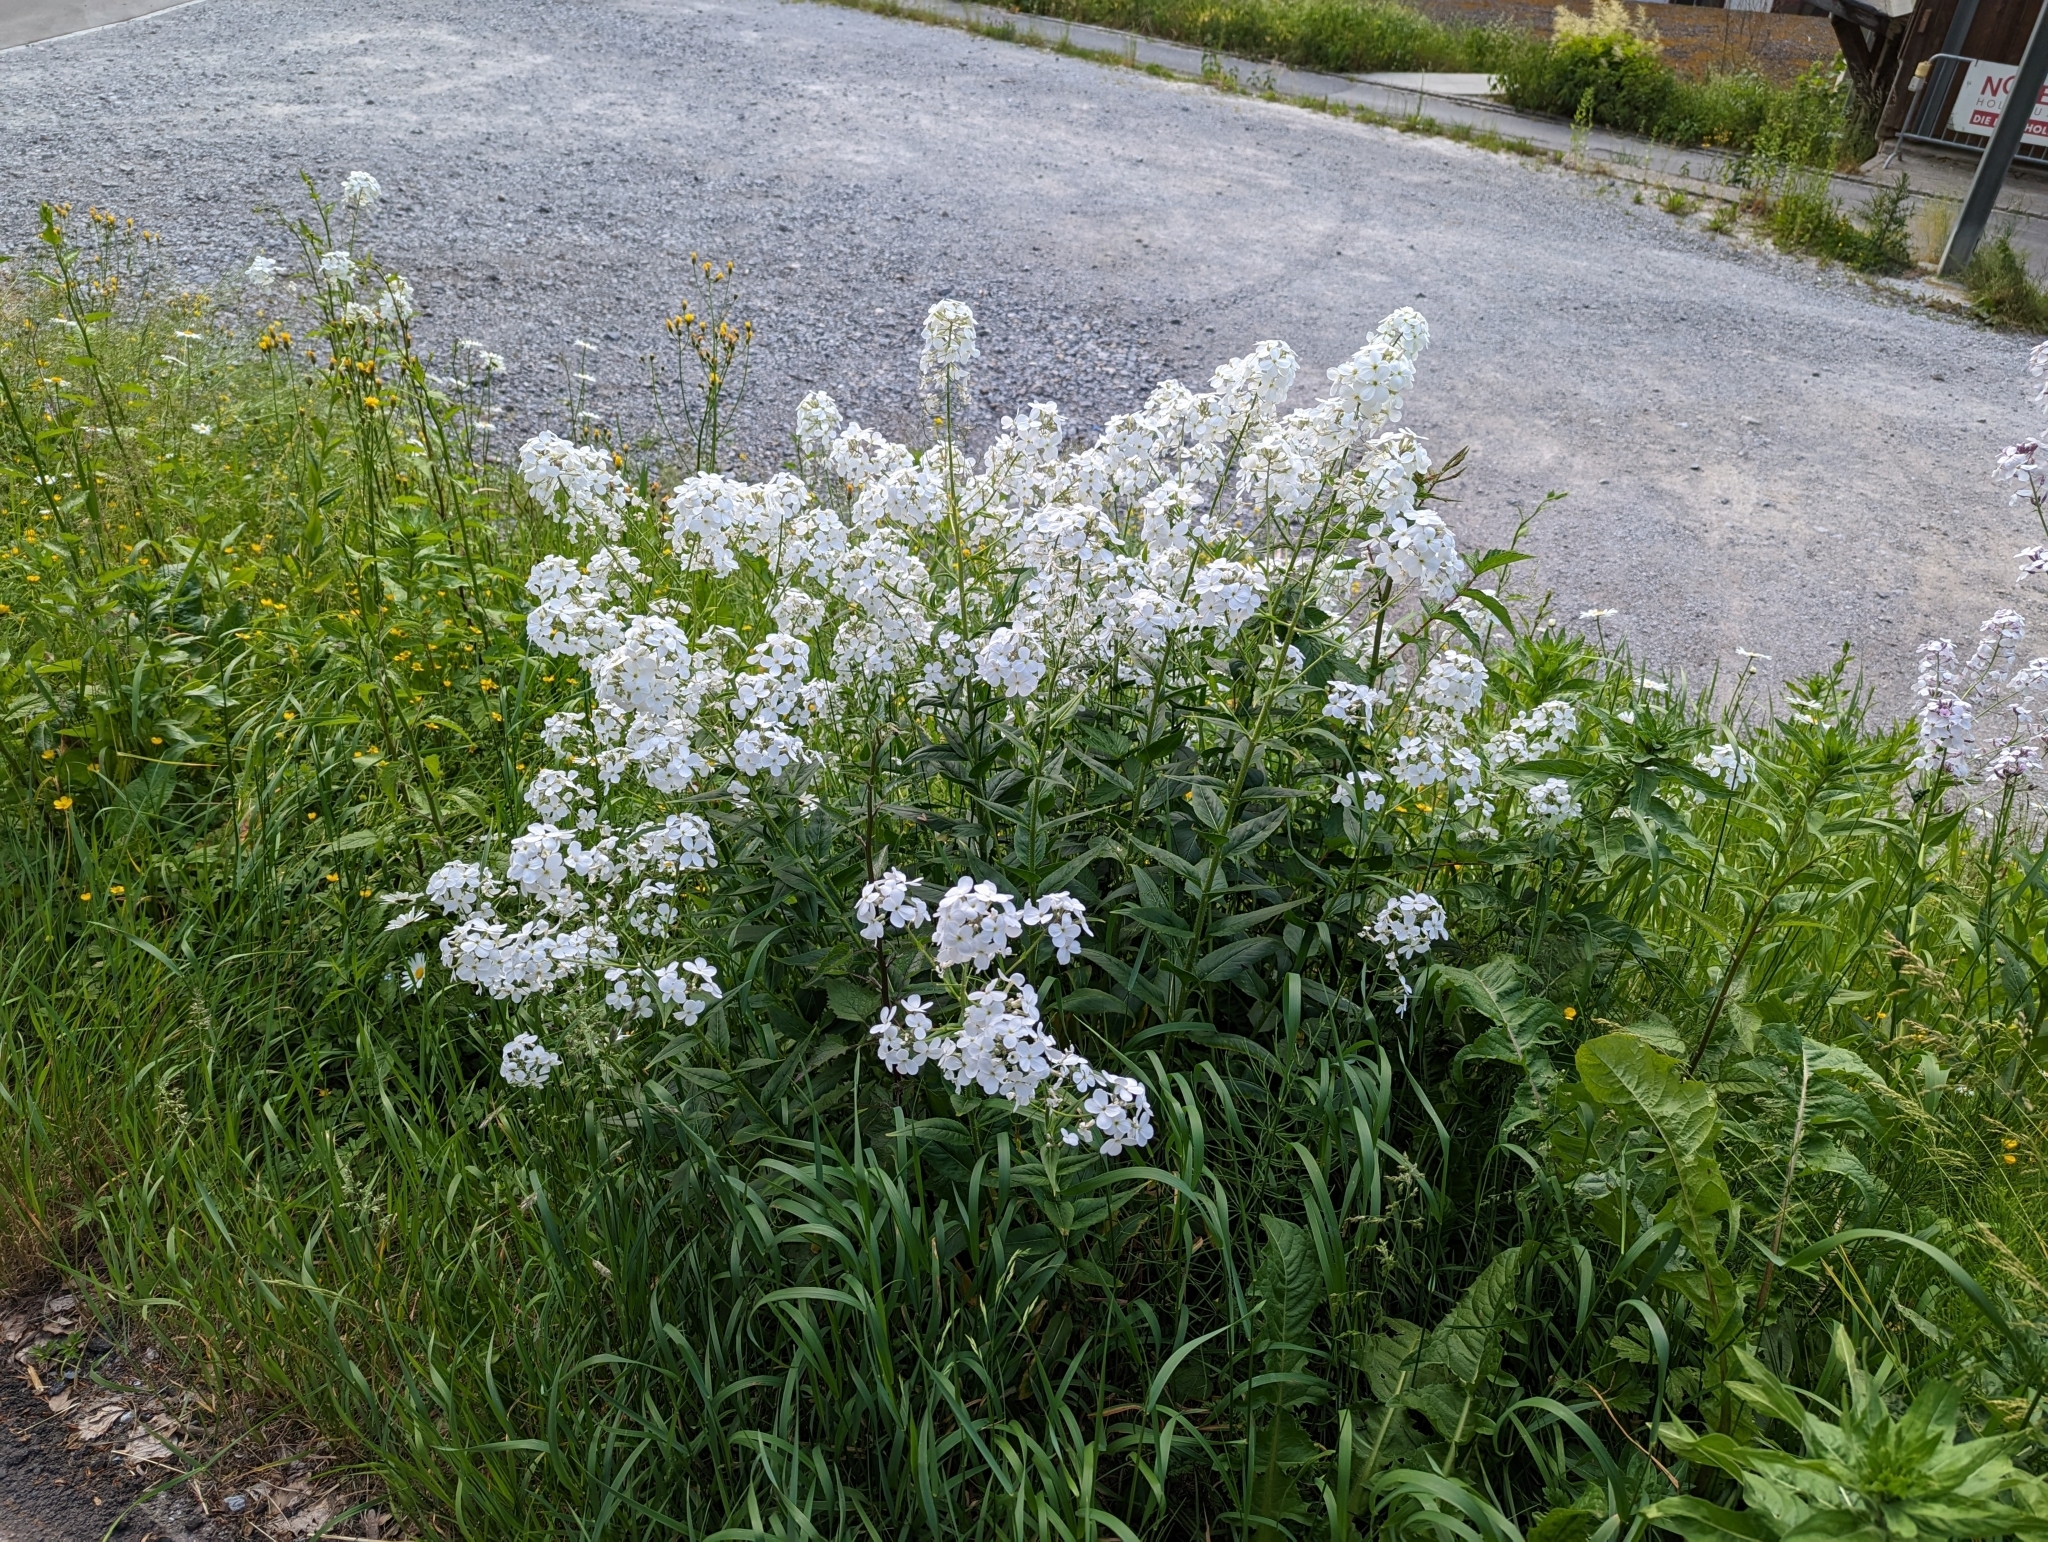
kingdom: Plantae
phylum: Tracheophyta
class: Magnoliopsida
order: Brassicales
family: Brassicaceae
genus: Hesperis
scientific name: Hesperis matronalis
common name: Dame's-violet
